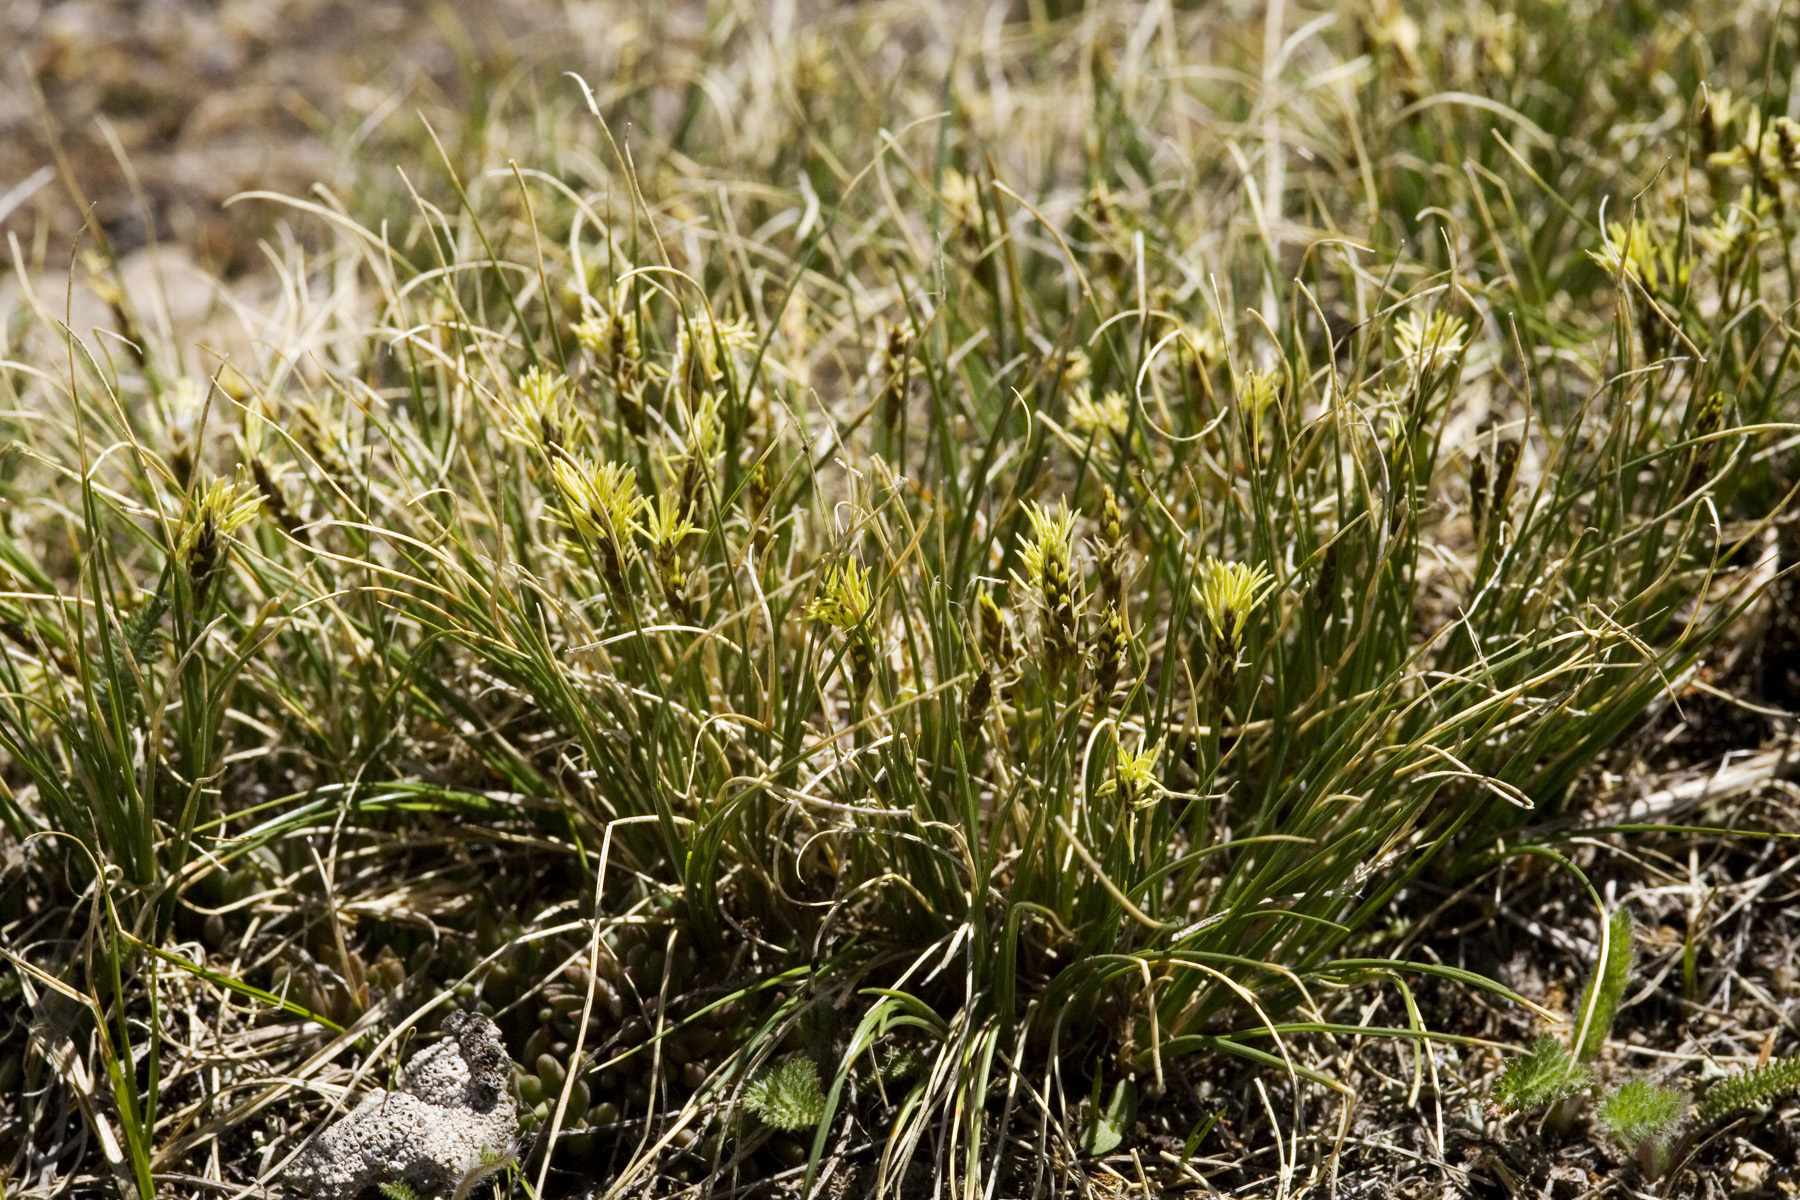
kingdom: Plantae
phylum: Tracheophyta
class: Liliopsida
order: Poales
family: Cyperaceae
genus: Carex
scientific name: Carex myosuroides
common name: Bellard's bog sedge
